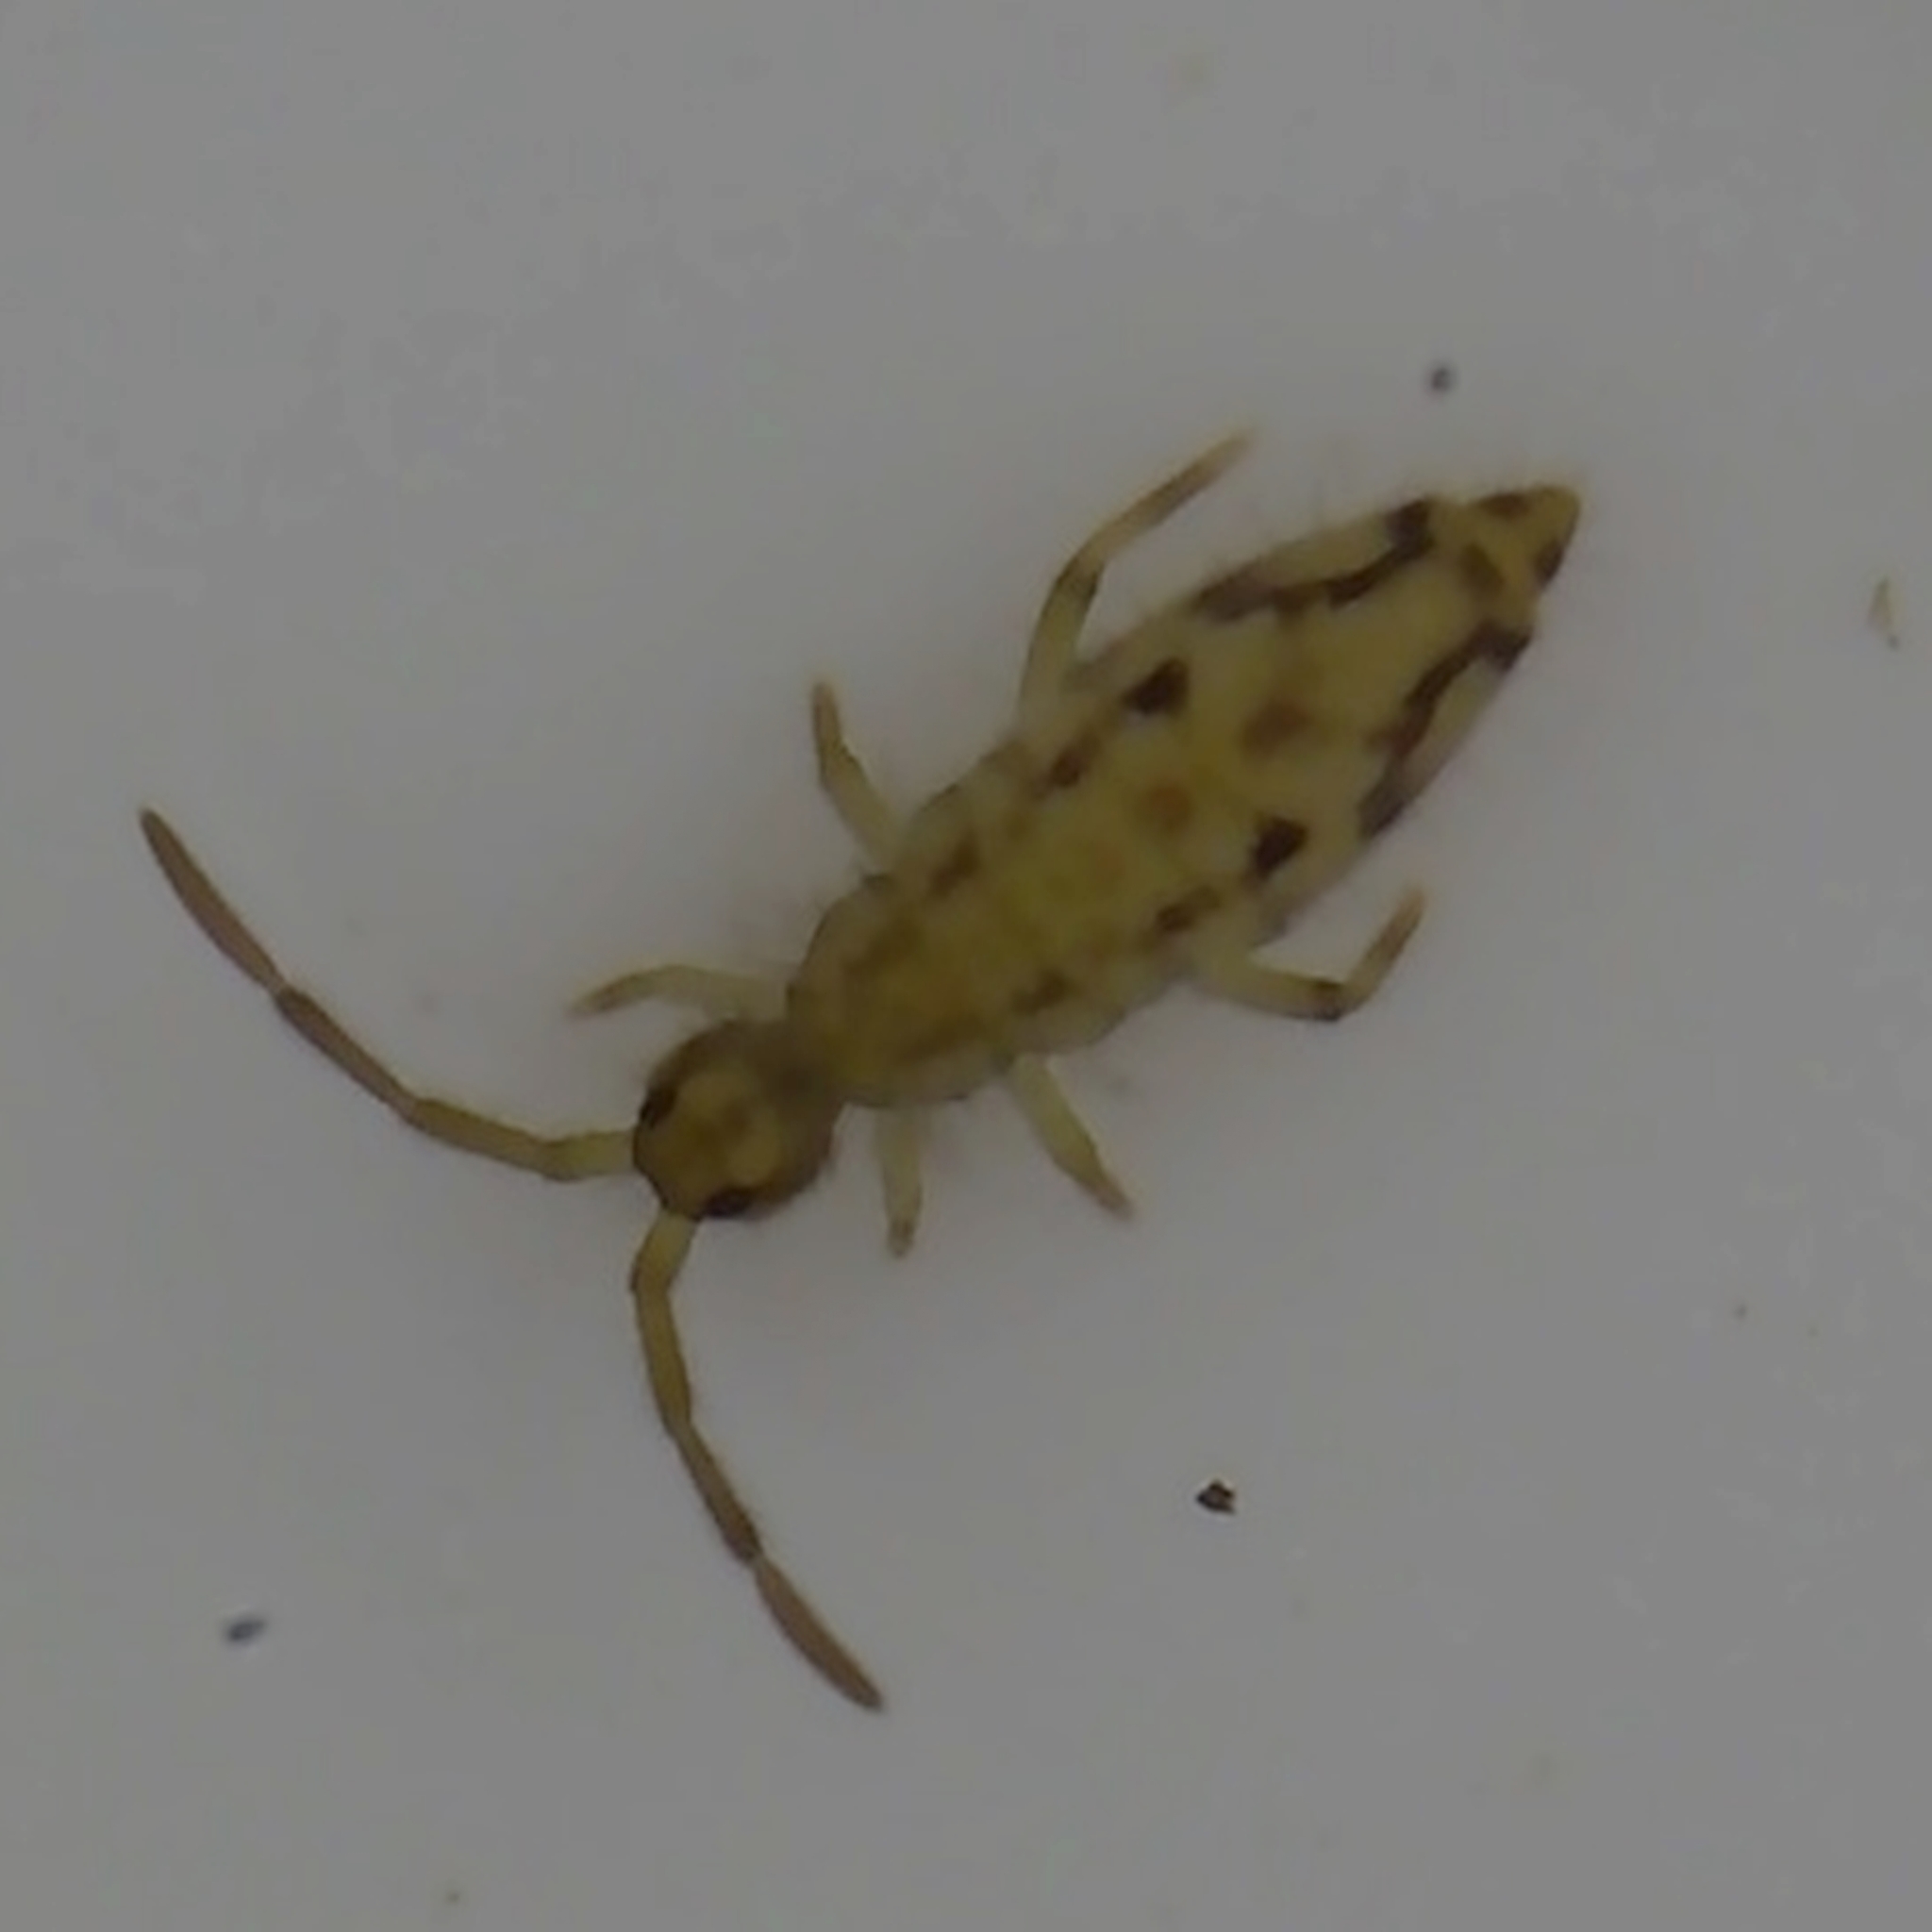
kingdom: Animalia
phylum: Arthropoda
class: Collembola
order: Entomobryomorpha
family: Entomobryidae
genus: Entomobrya
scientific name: Entomobrya intermedia
